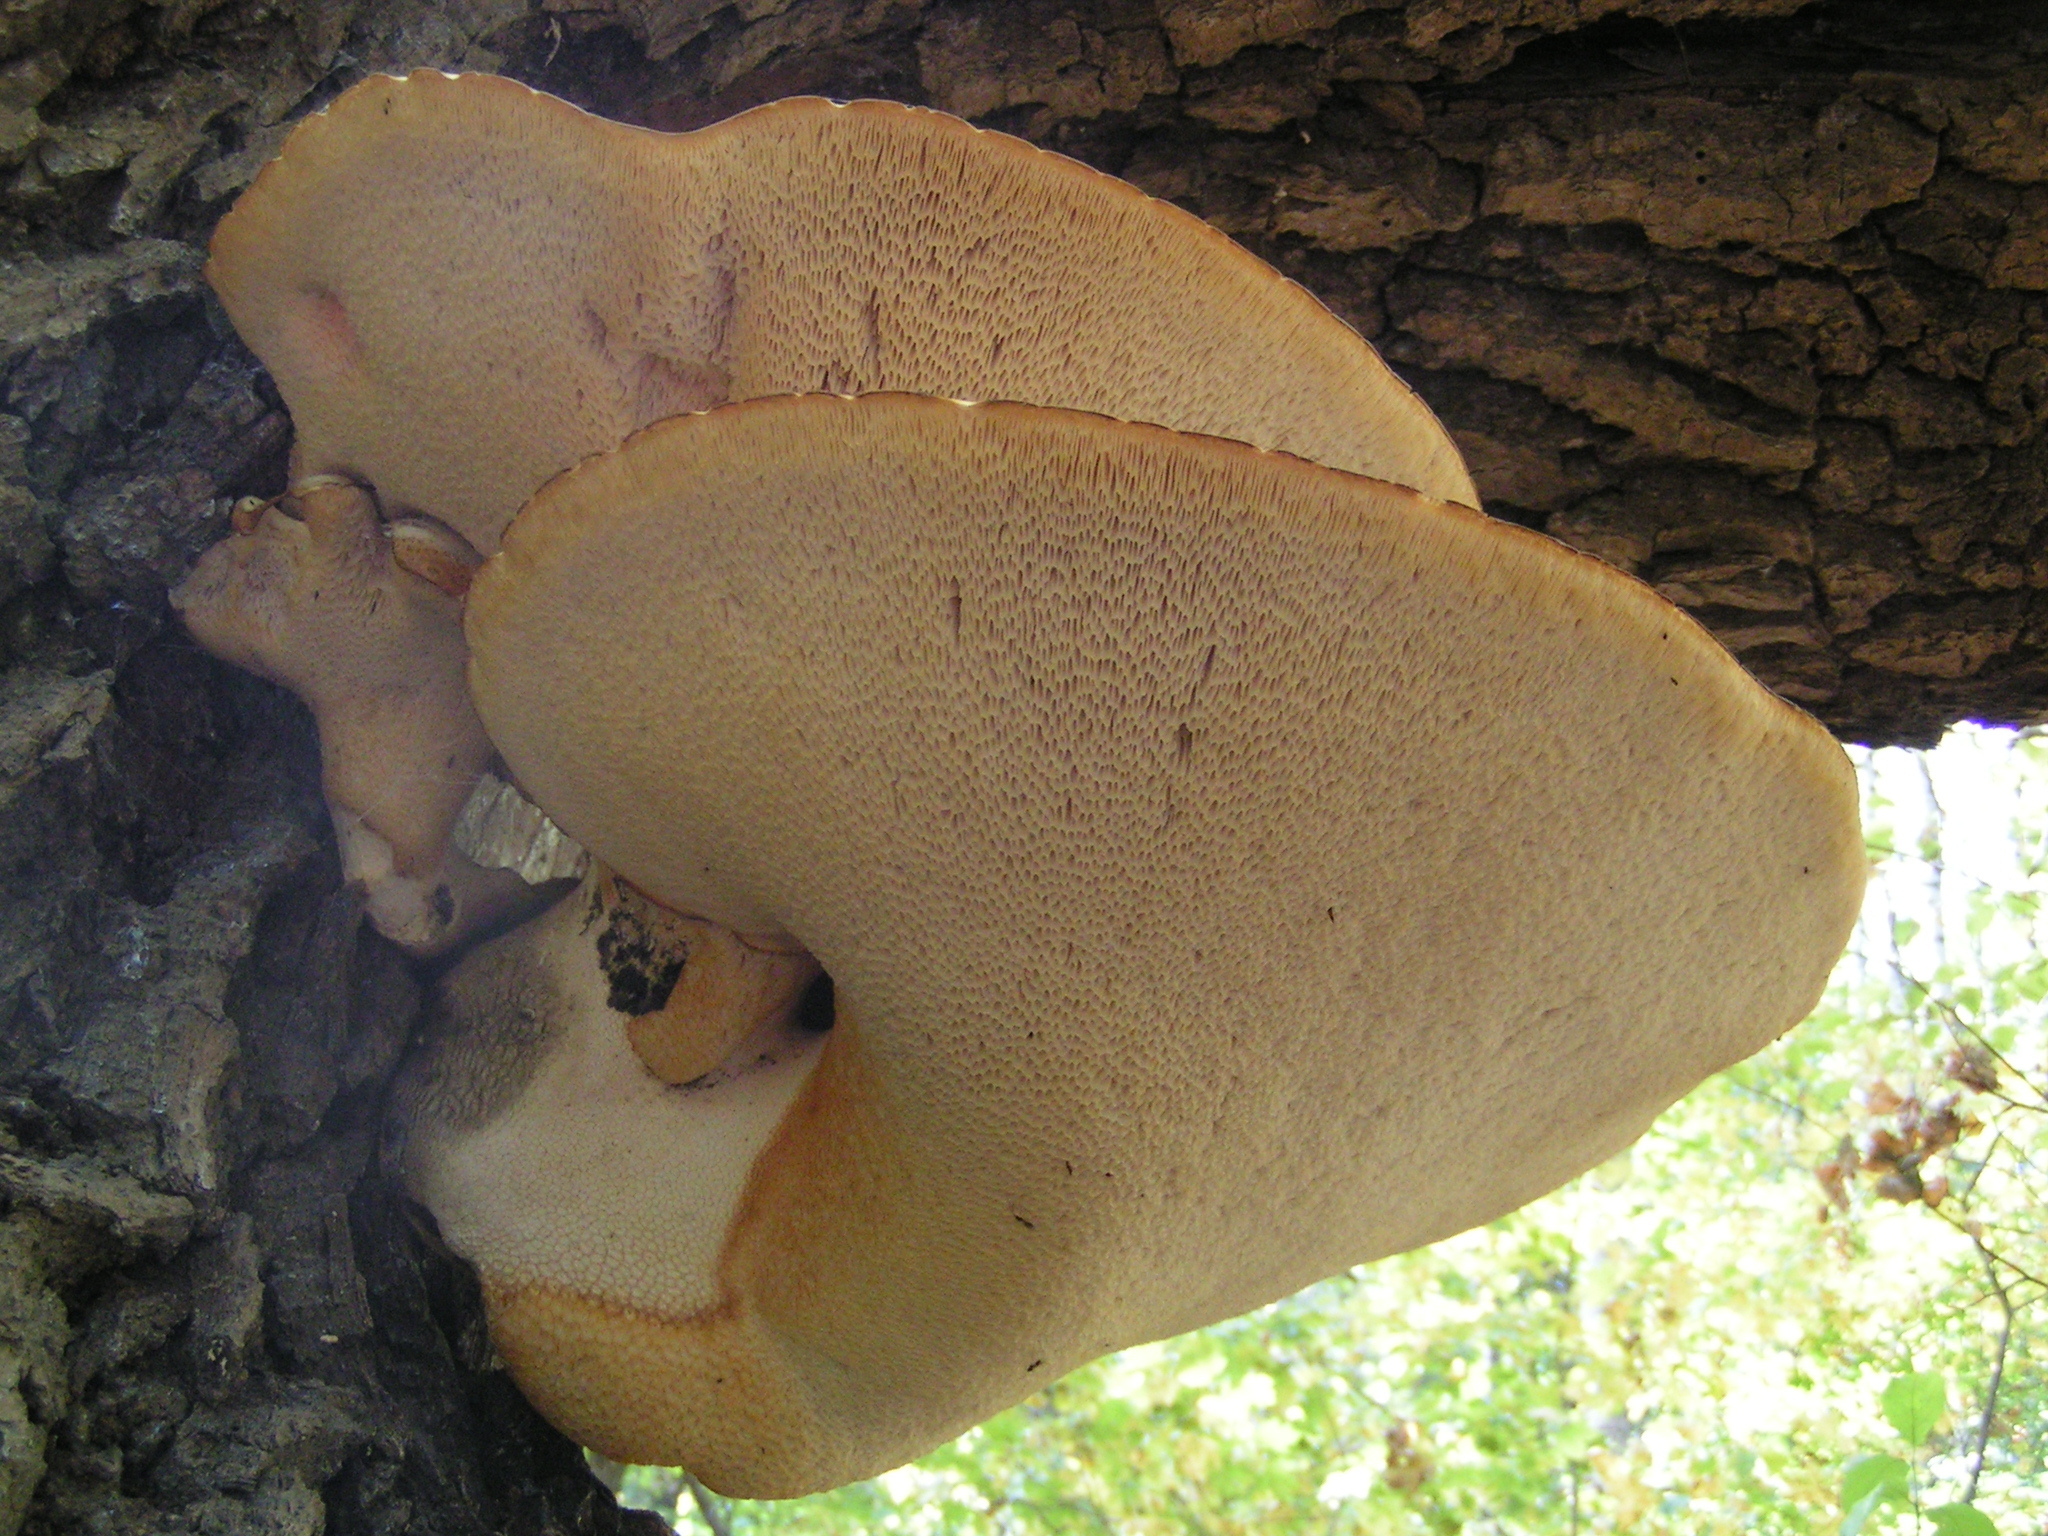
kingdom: Fungi
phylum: Basidiomycota
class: Agaricomycetes
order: Polyporales
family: Polyporaceae
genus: Cerioporus
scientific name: Cerioporus squamosus
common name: Dryad's saddle
